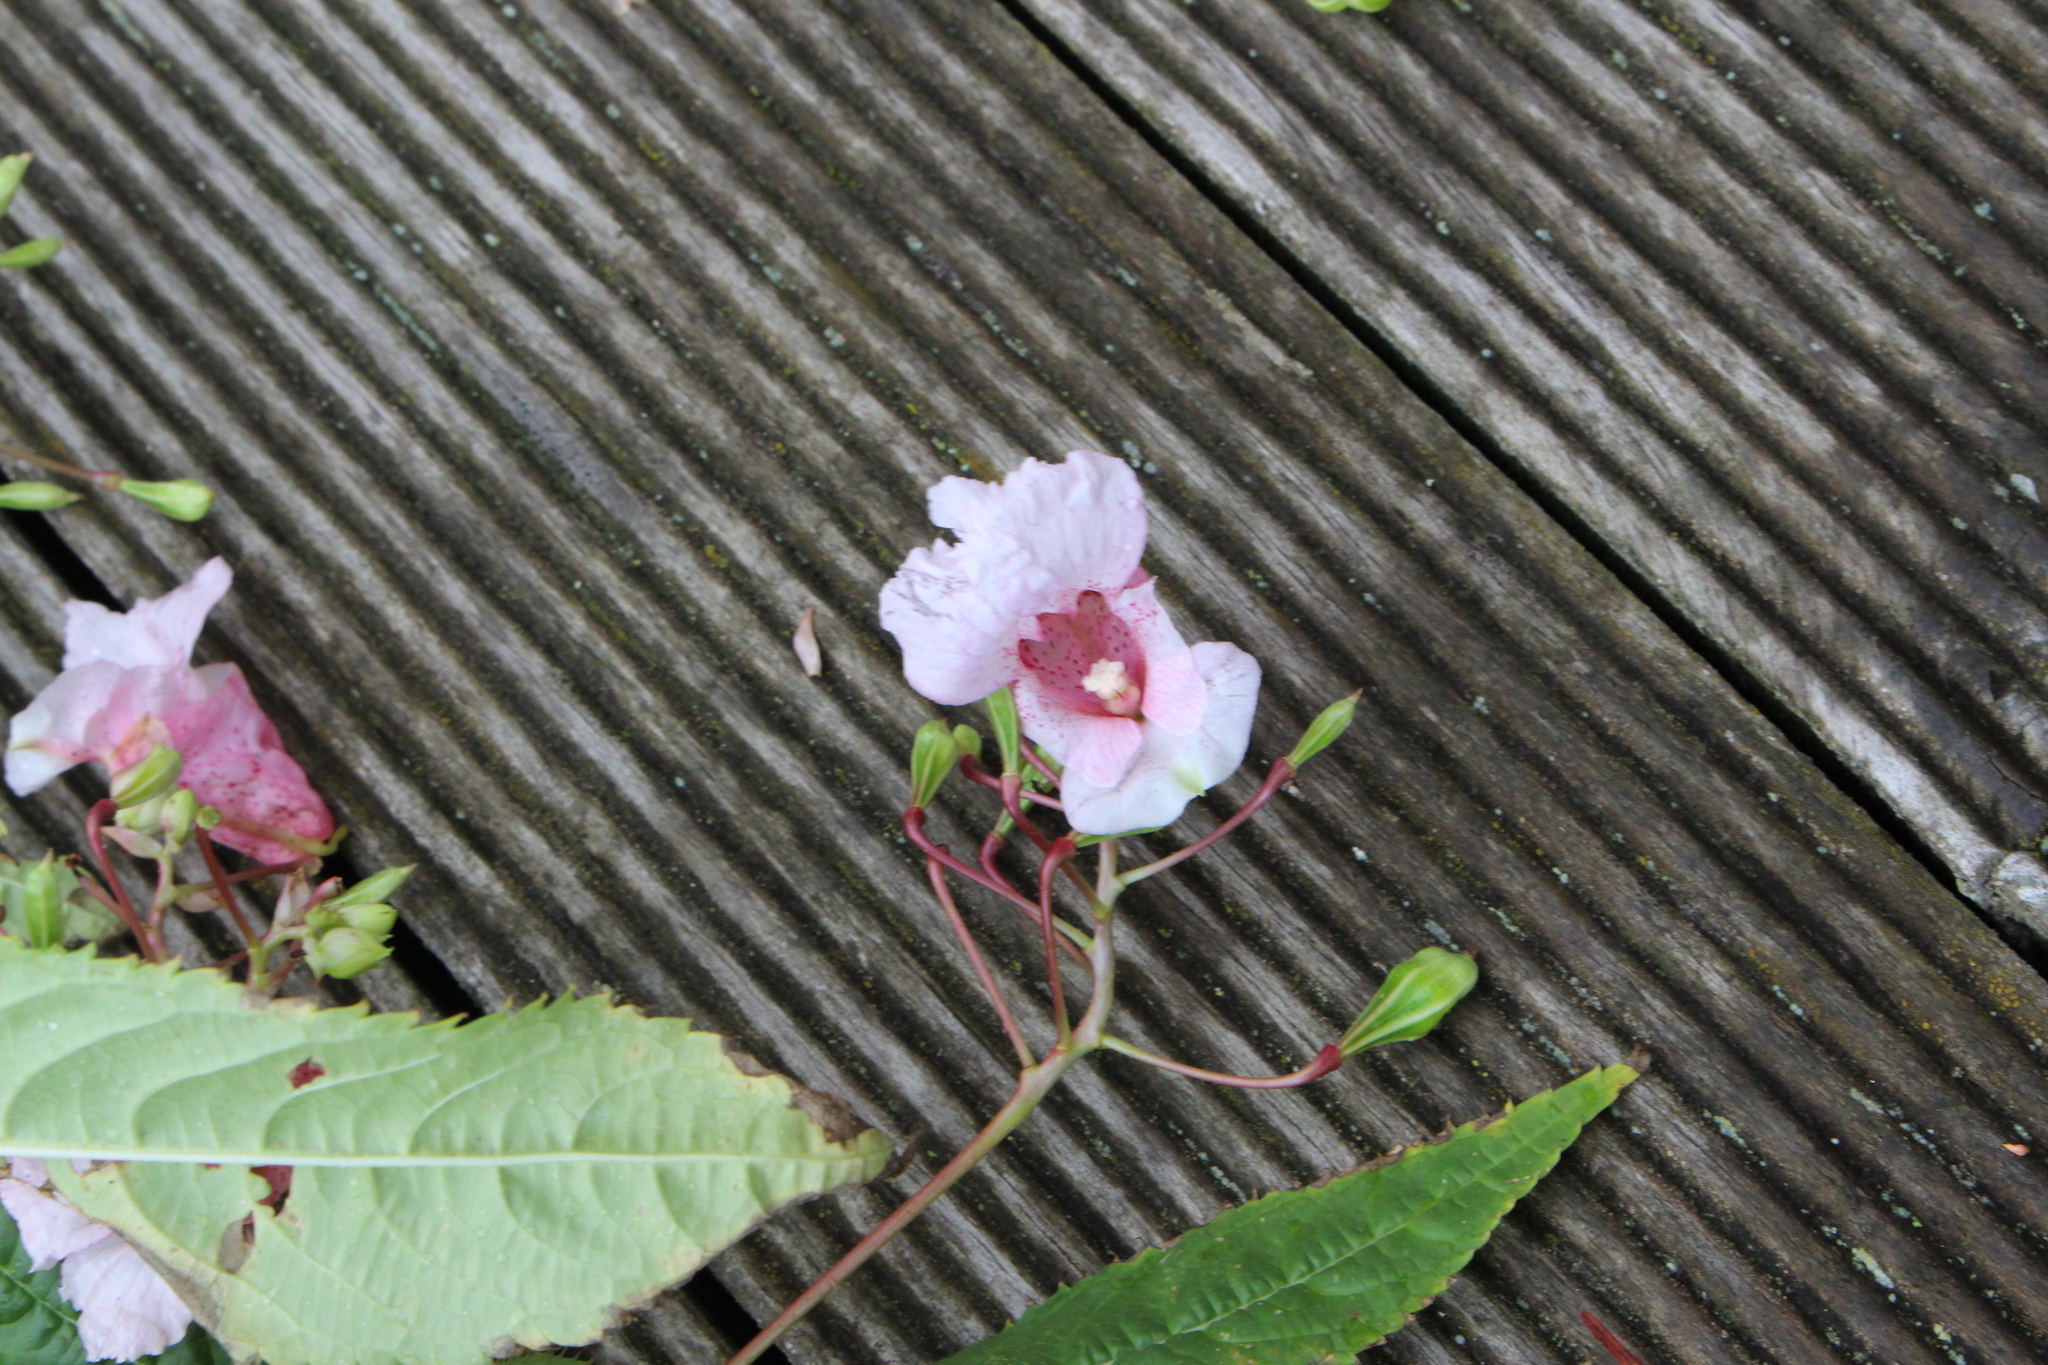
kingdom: Plantae
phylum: Tracheophyta
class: Magnoliopsida
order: Ericales
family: Balsaminaceae
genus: Impatiens
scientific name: Impatiens glandulifera
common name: Himalayan balsam
